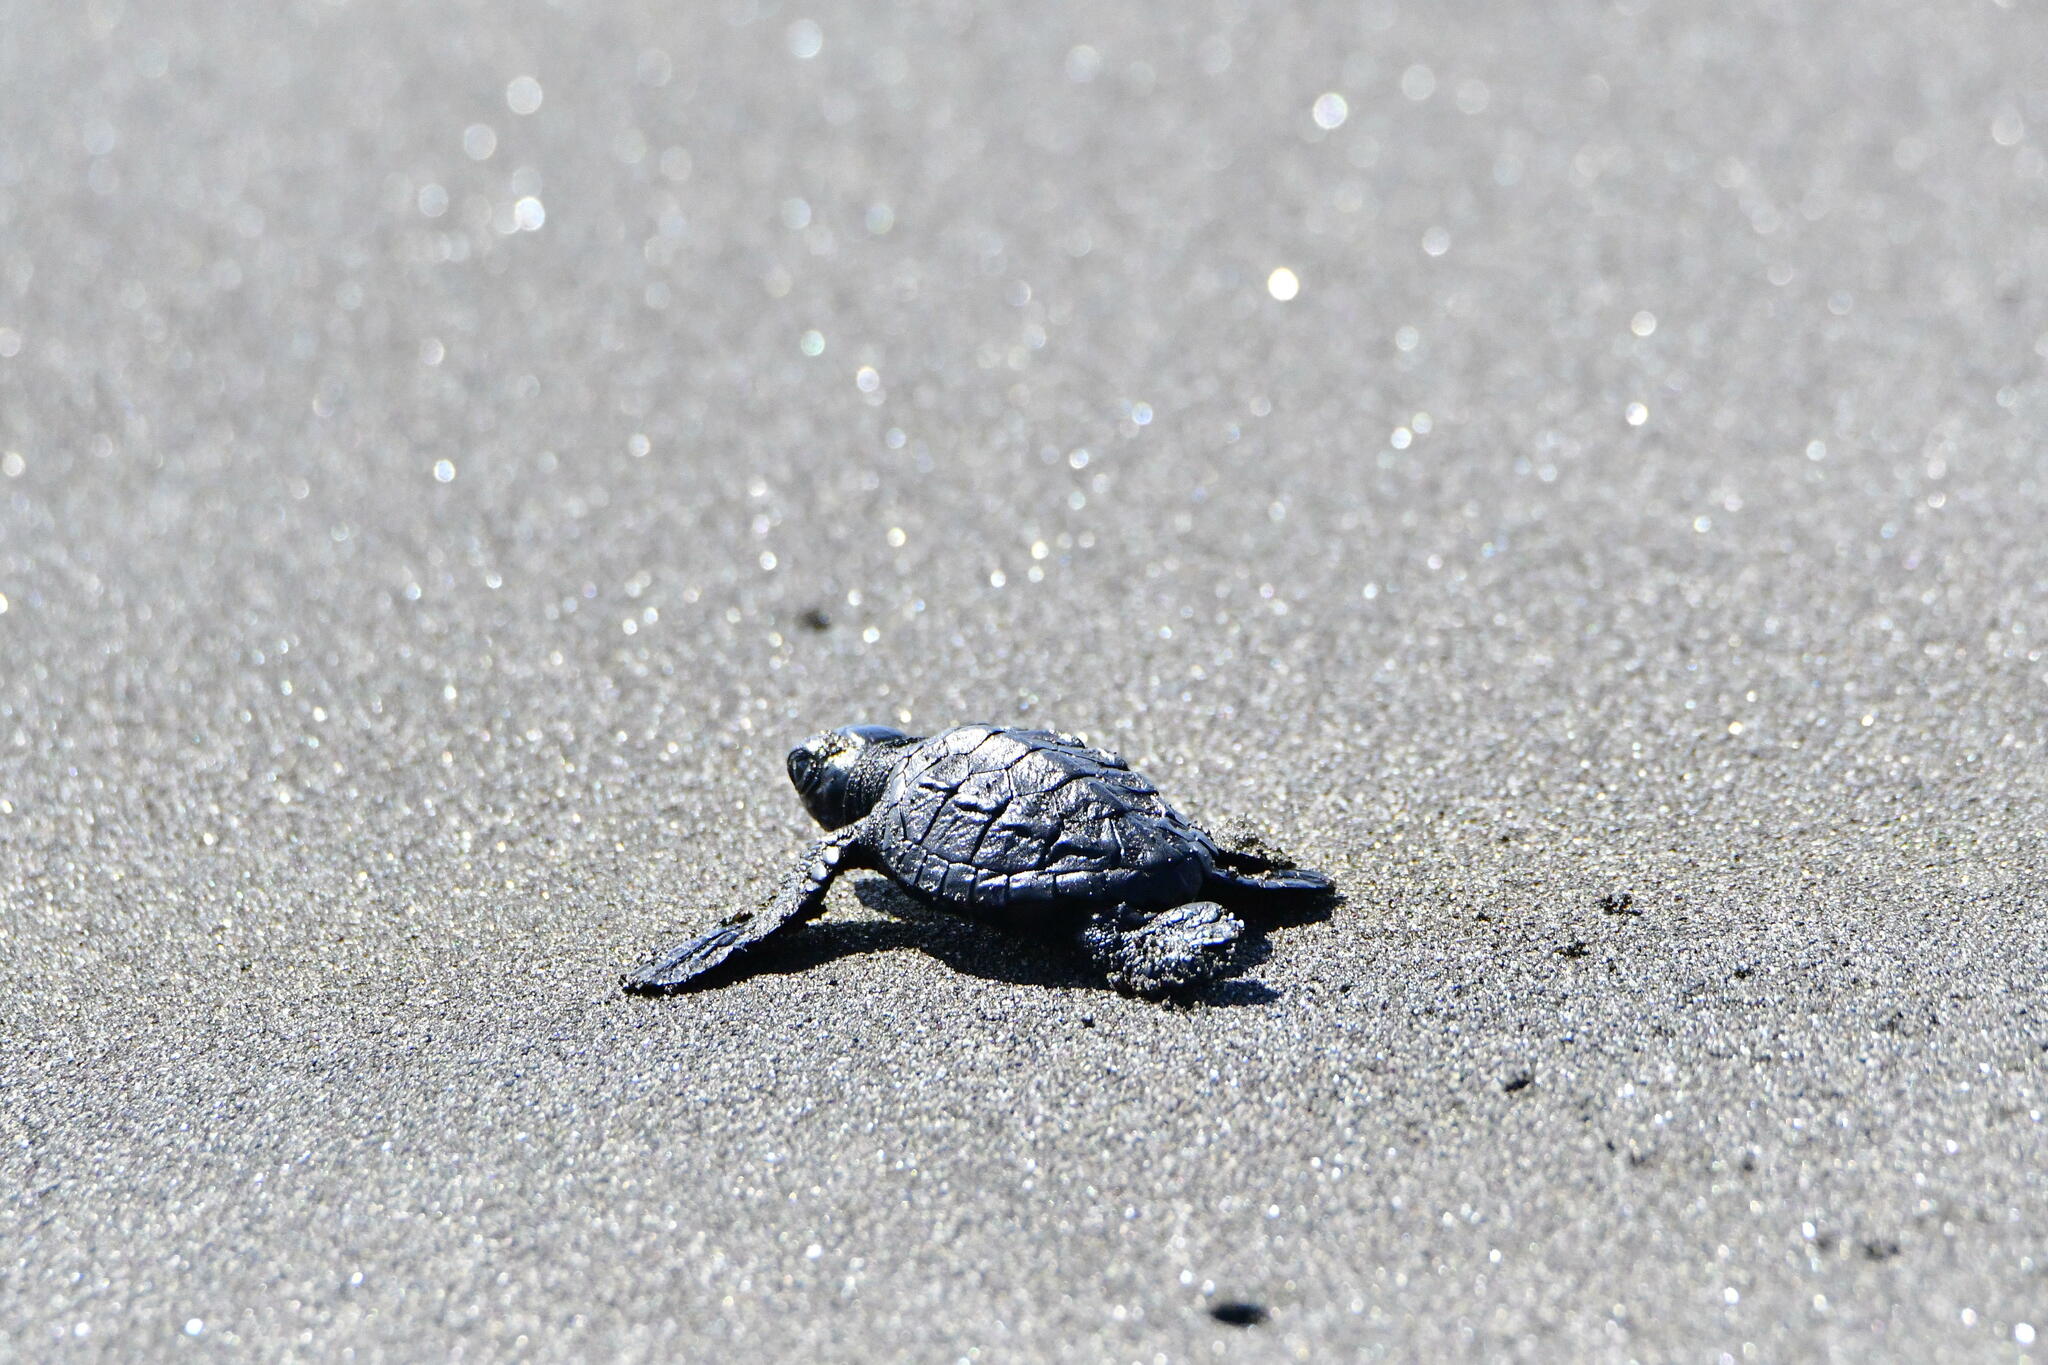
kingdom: Animalia
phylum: Chordata
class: Testudines
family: Cheloniidae
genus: Lepidochelys
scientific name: Lepidochelys olivacea
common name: Olive ridley
